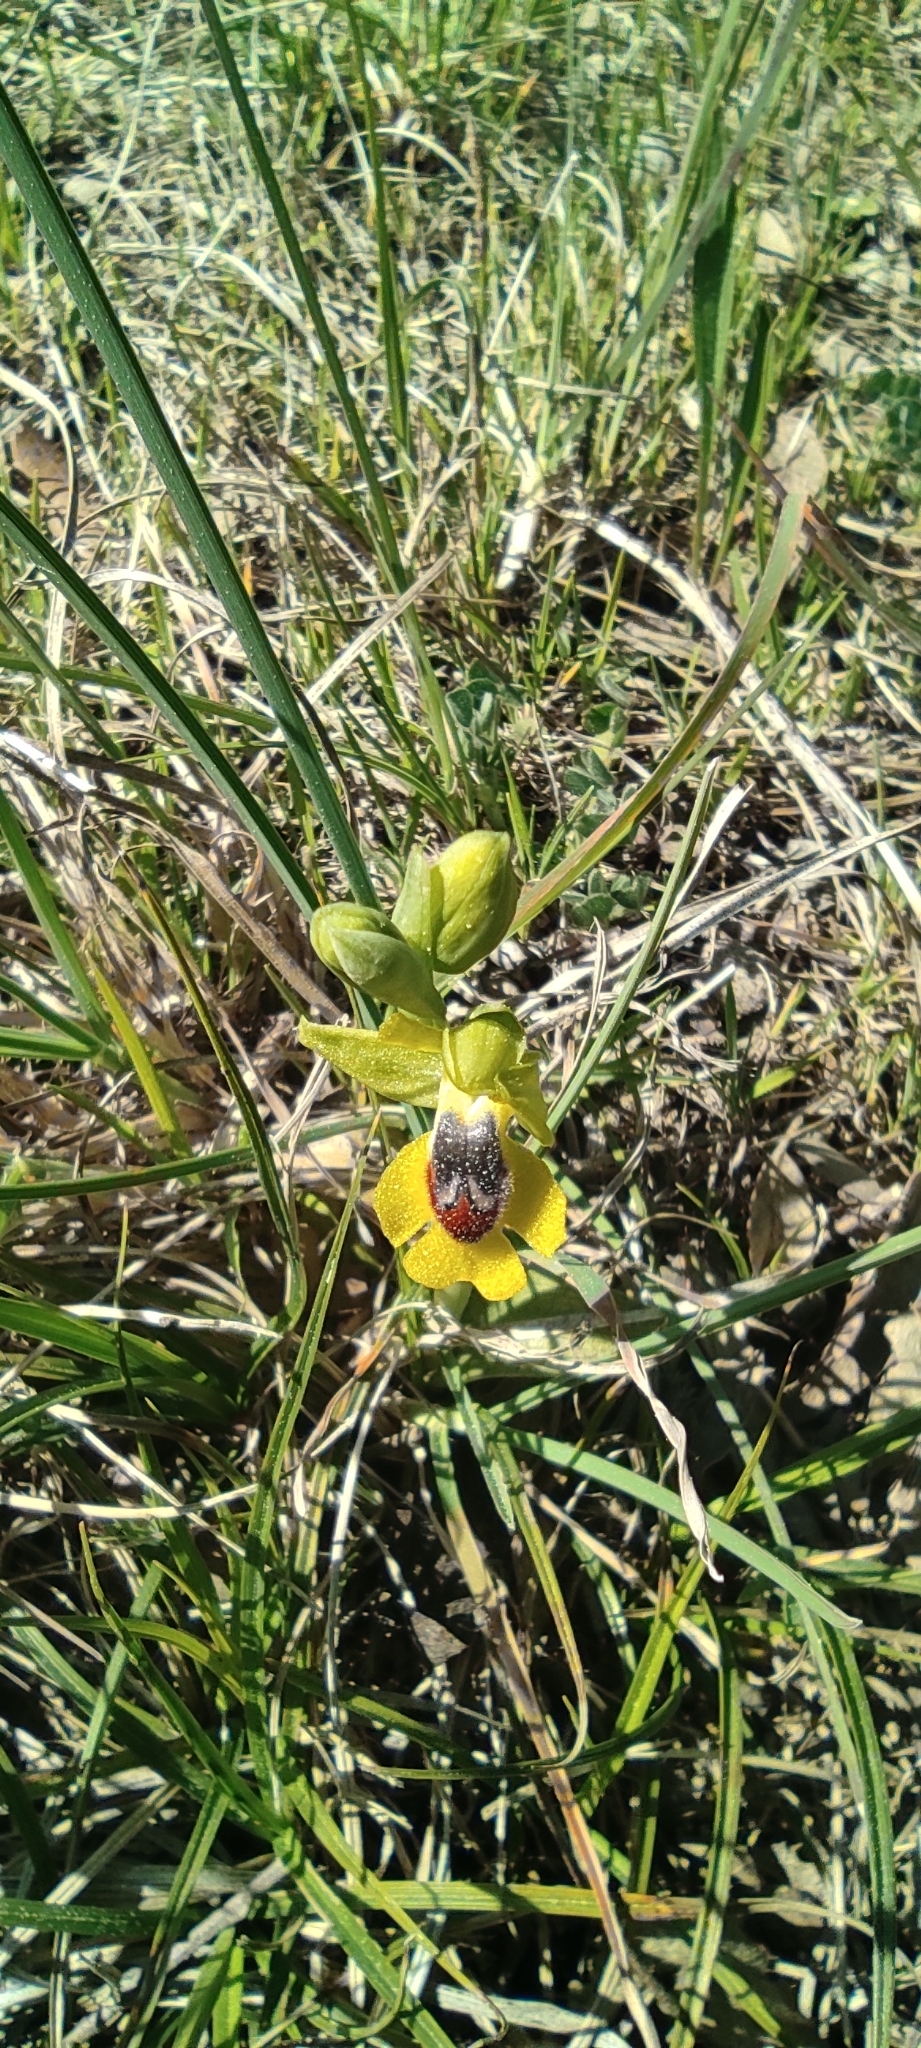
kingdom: Plantae
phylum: Tracheophyta
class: Liliopsida
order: Asparagales
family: Orchidaceae
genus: Ophrys
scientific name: Ophrys lutea
